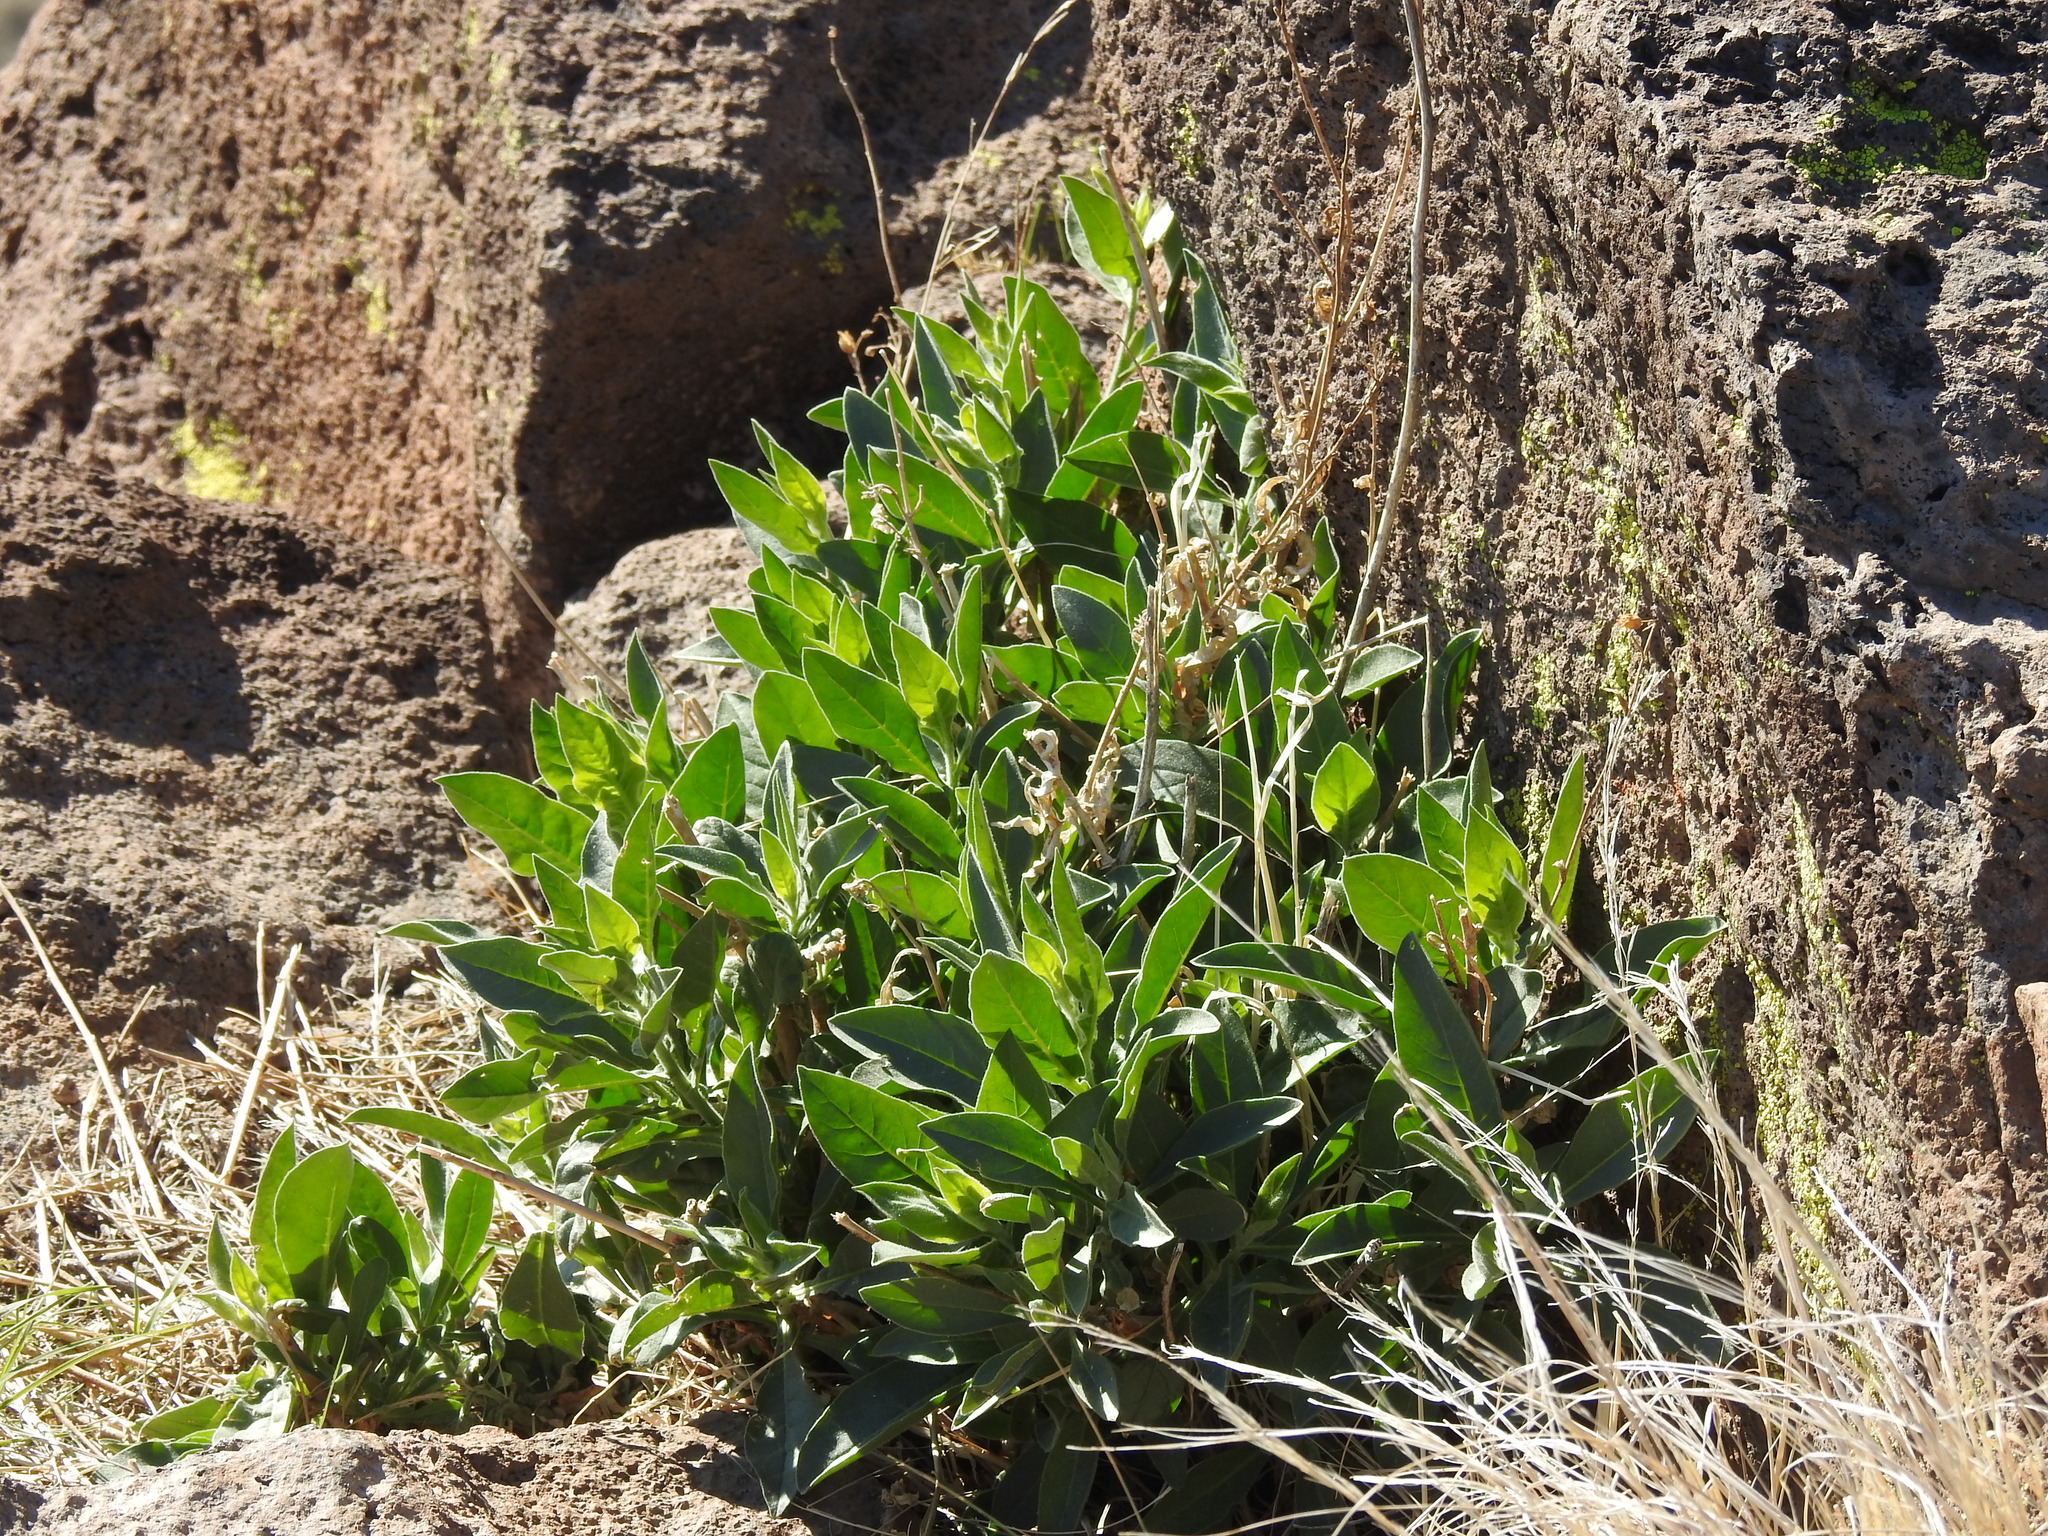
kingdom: Plantae
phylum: Tracheophyta
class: Magnoliopsida
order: Solanales
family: Solanaceae
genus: Nicotiana
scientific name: Nicotiana obtusifolia
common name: Desert tobacco
